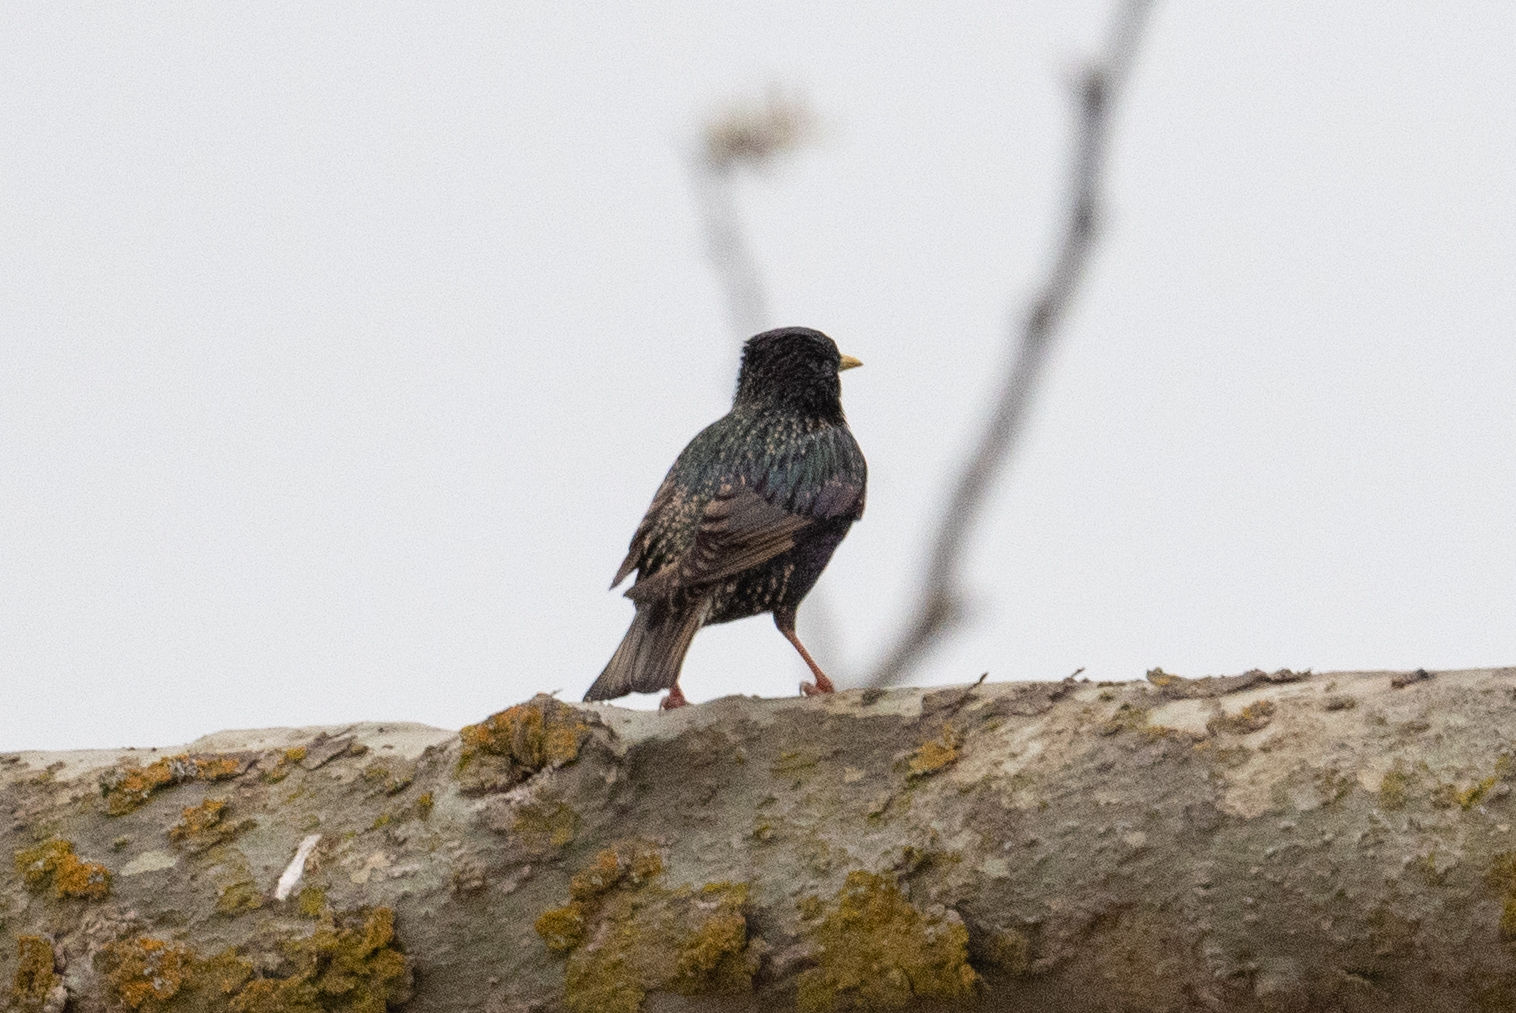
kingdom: Animalia
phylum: Chordata
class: Aves
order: Passeriformes
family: Sturnidae
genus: Sturnus
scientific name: Sturnus vulgaris
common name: Common starling
